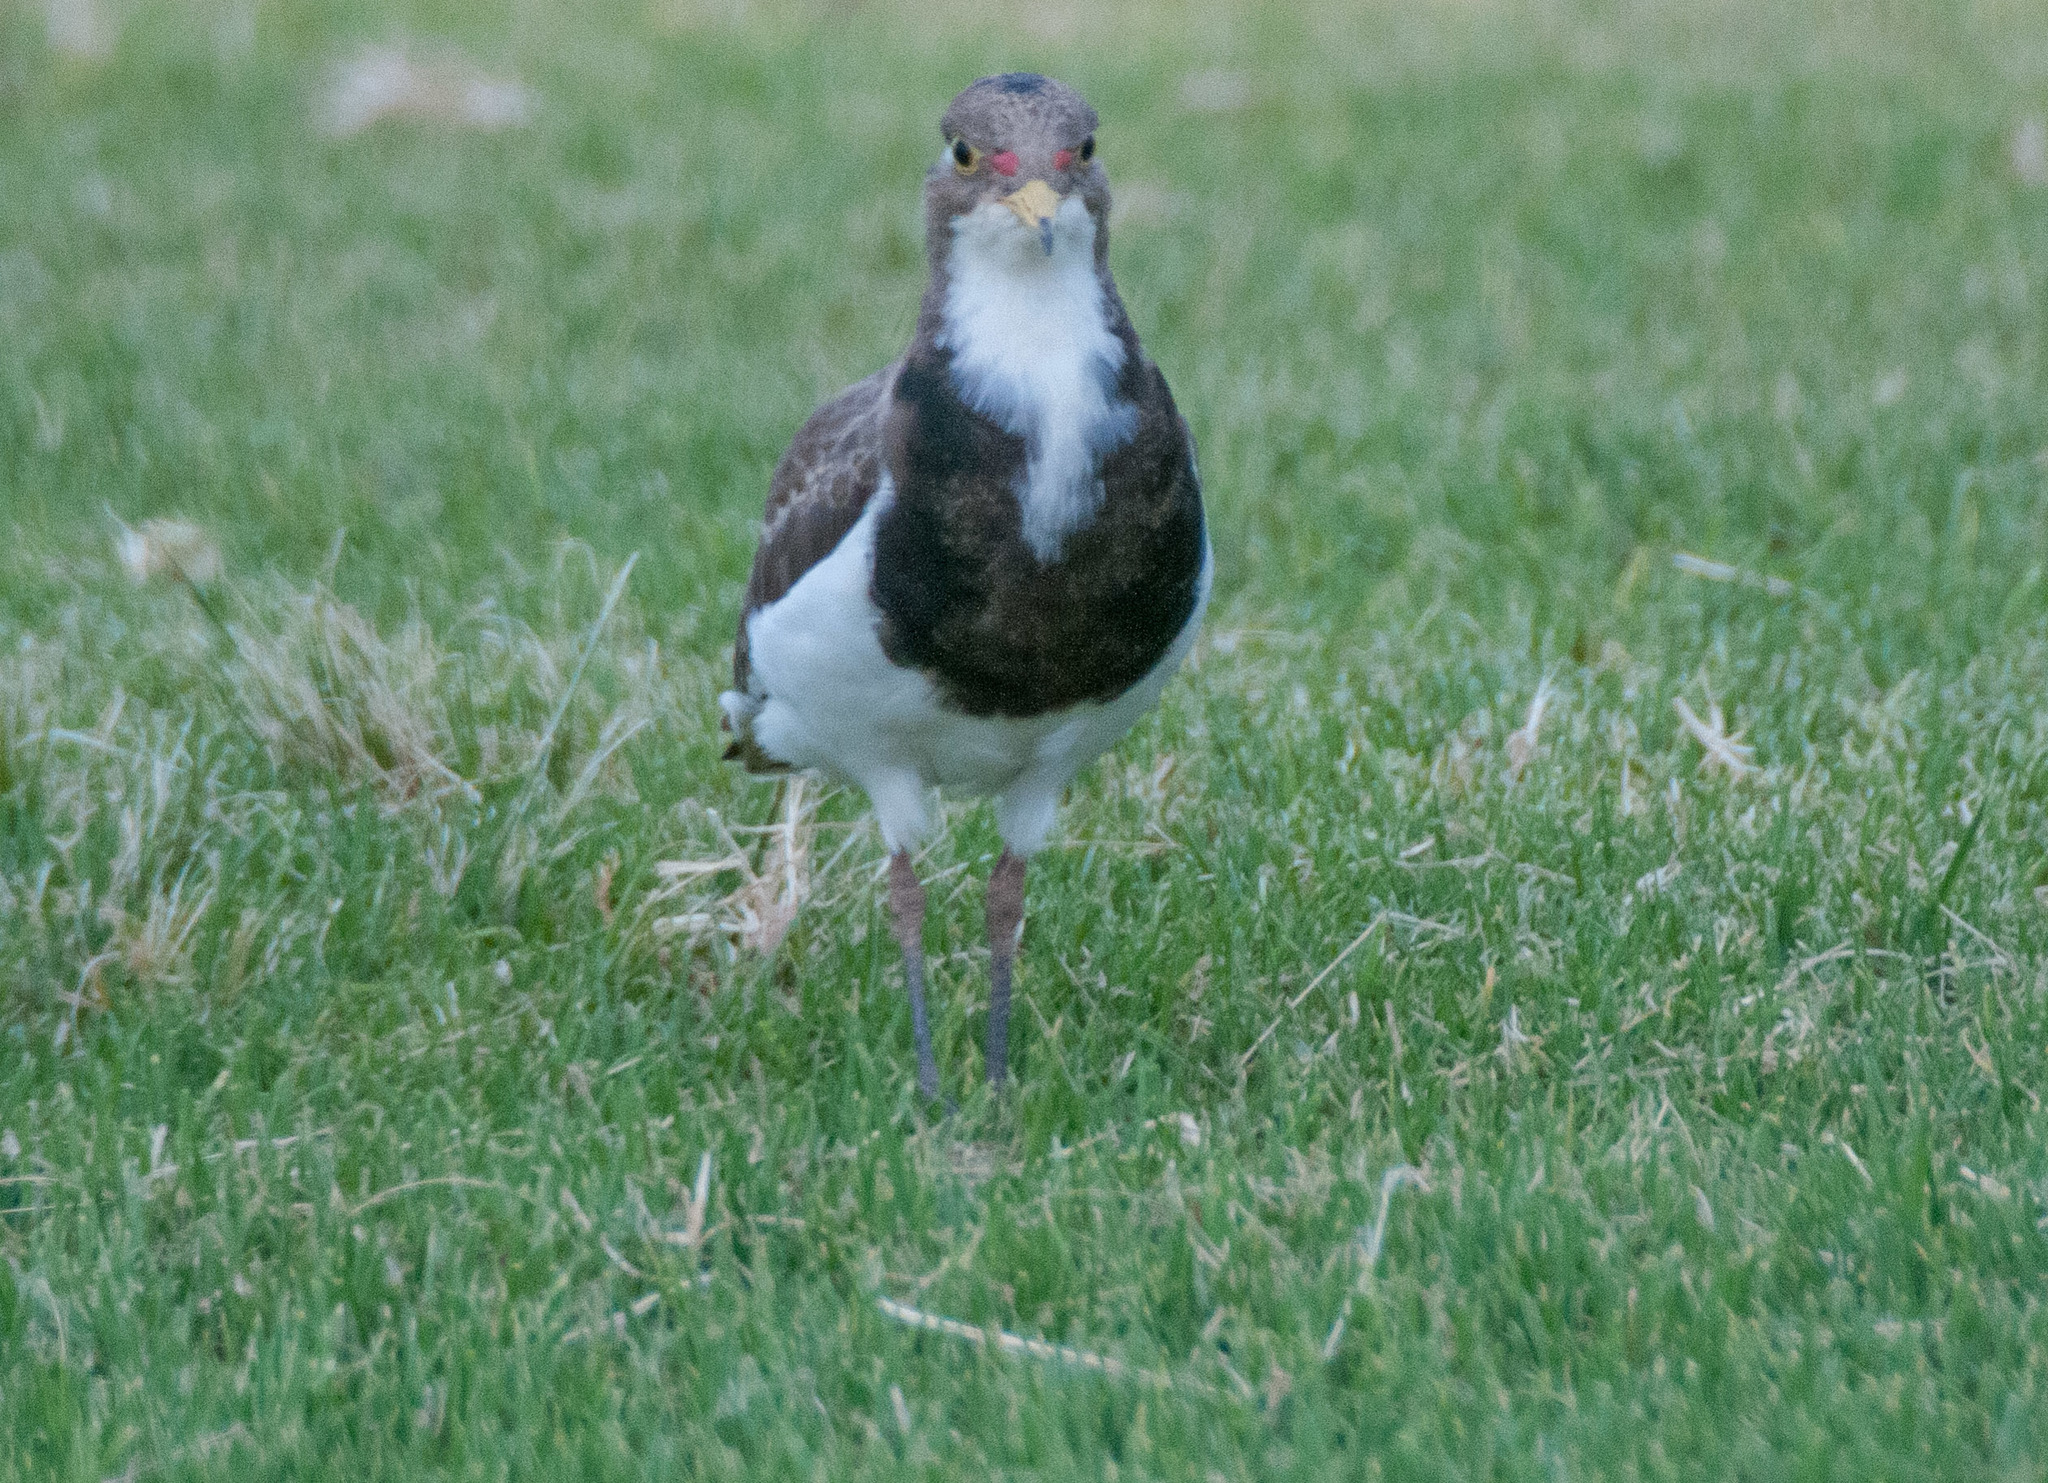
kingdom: Animalia
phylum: Chordata
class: Aves
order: Charadriiformes
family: Charadriidae
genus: Vanellus
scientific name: Vanellus tricolor
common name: Banded lapwing
